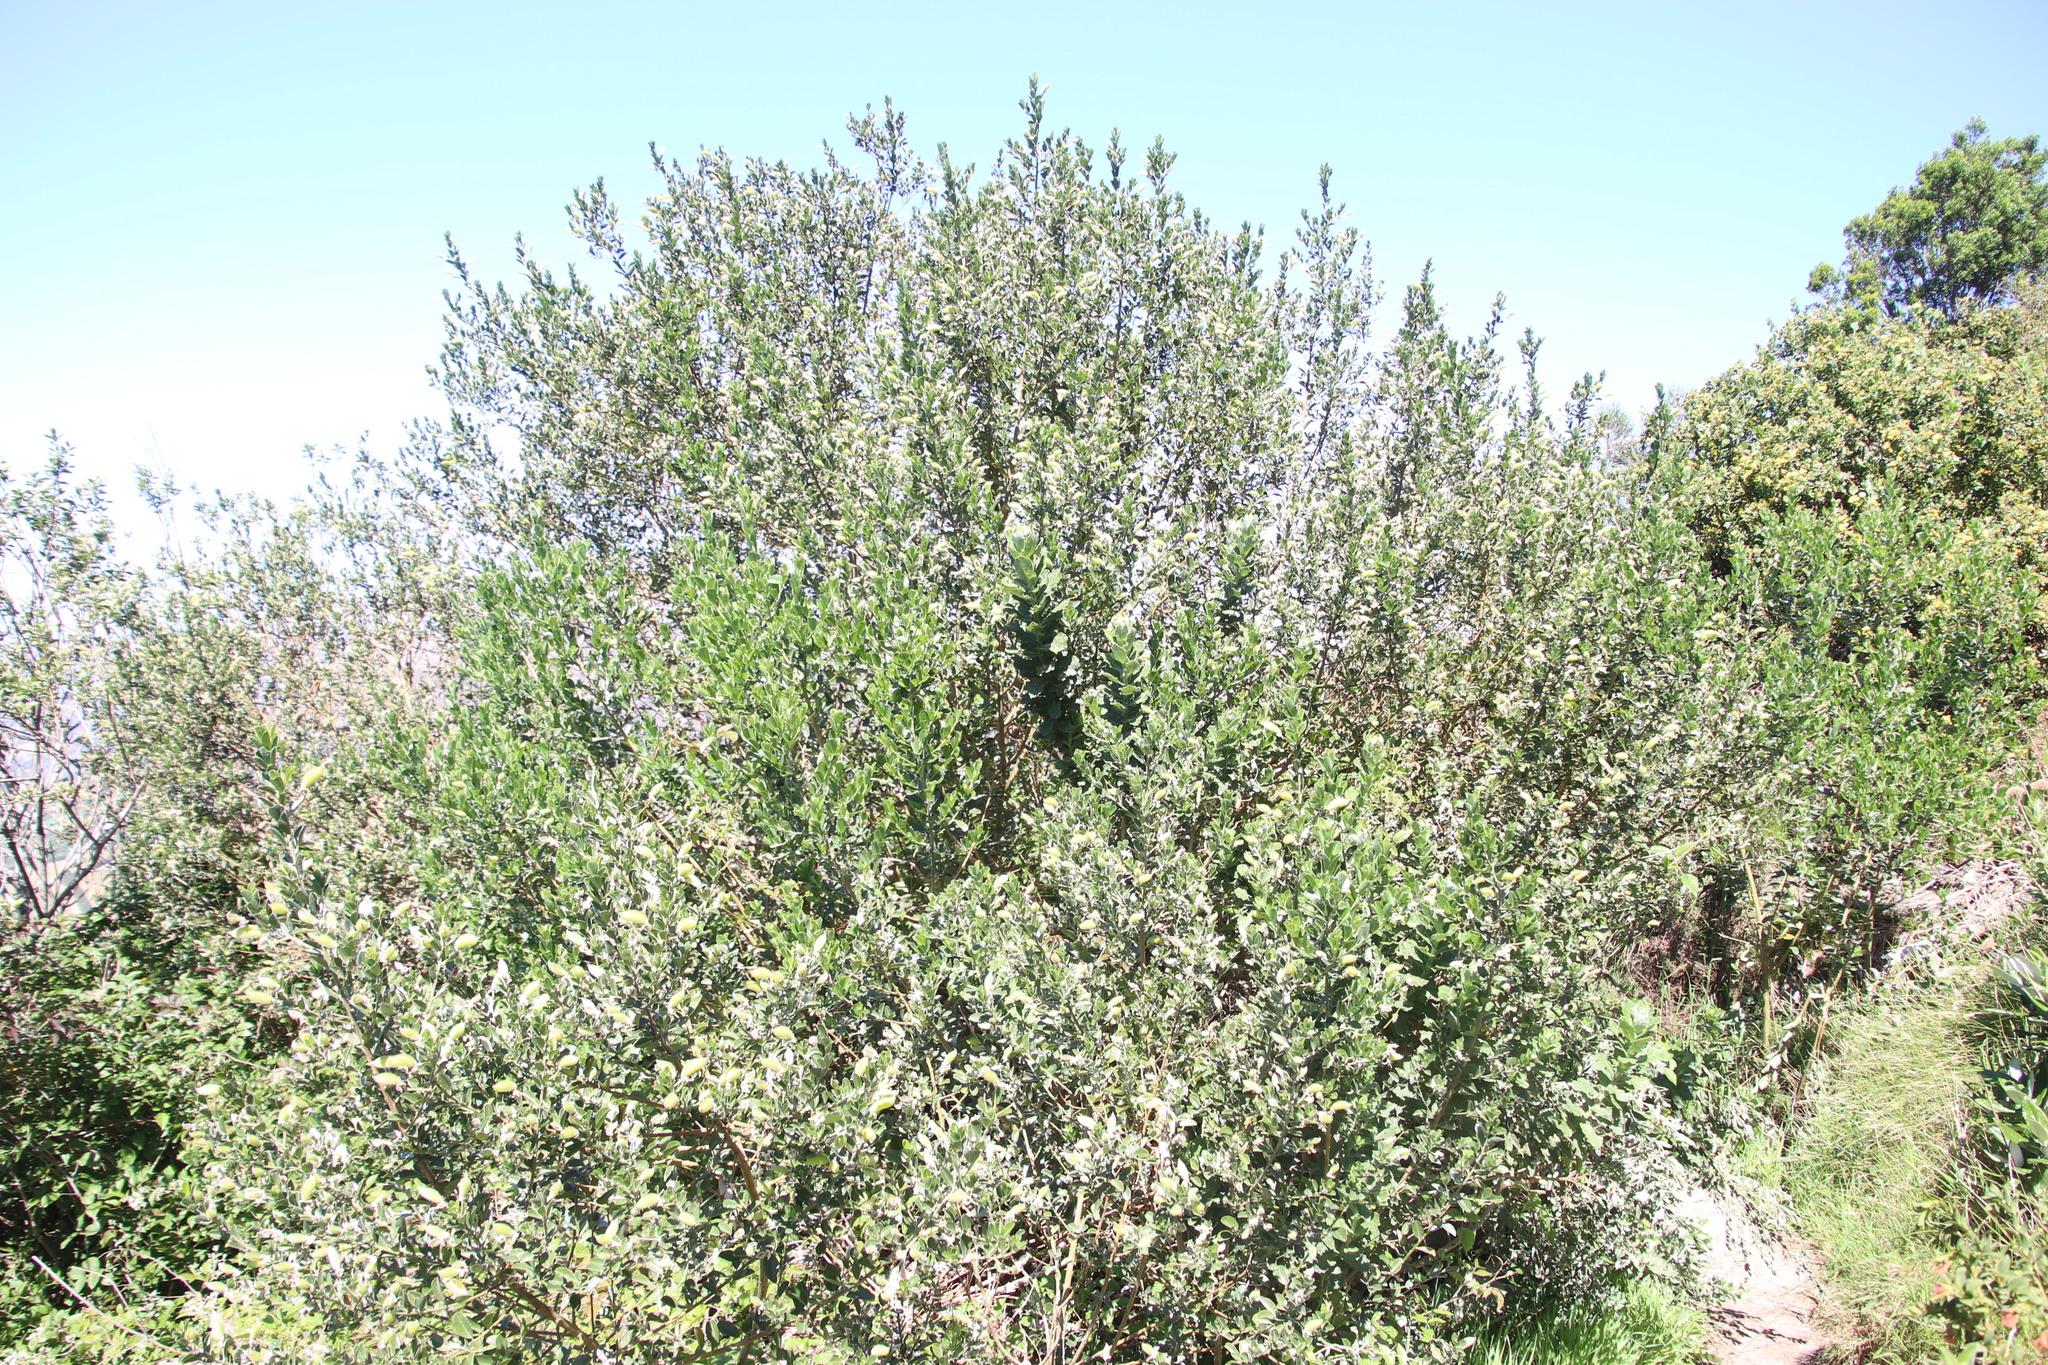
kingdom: Plantae
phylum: Tracheophyta
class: Magnoliopsida
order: Fabales
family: Fabaceae
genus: Podalyria
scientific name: Podalyria calyptrata
